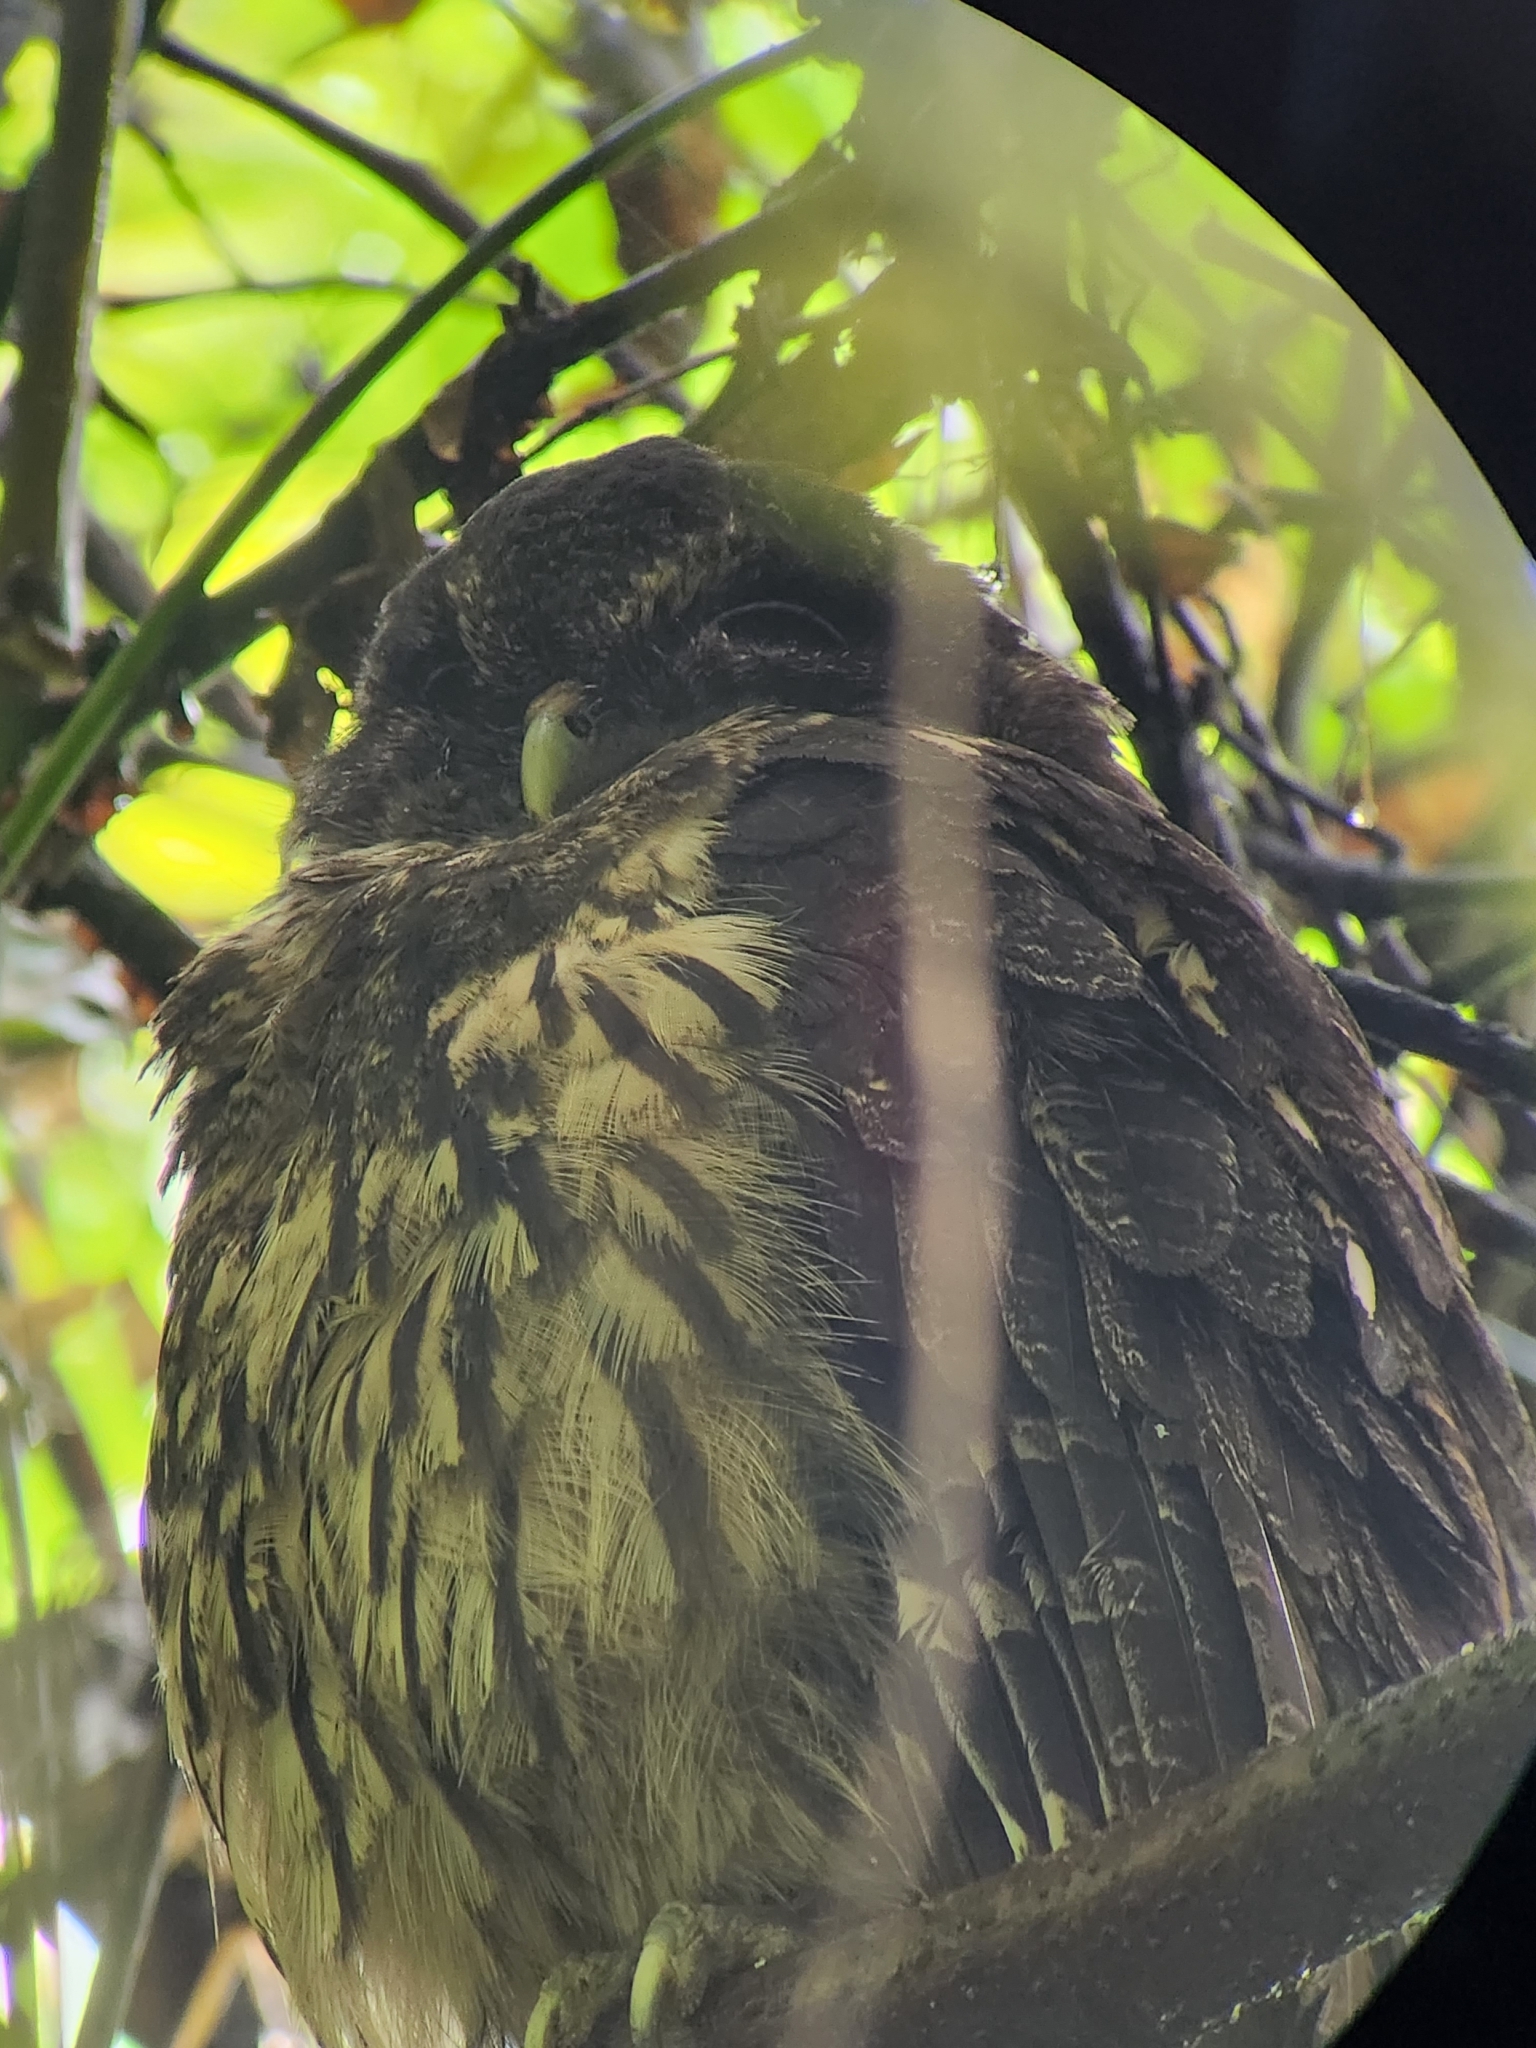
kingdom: Animalia
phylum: Chordata
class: Aves
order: Strigiformes
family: Strigidae
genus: Strix
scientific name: Strix virgata
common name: Mottled owl
